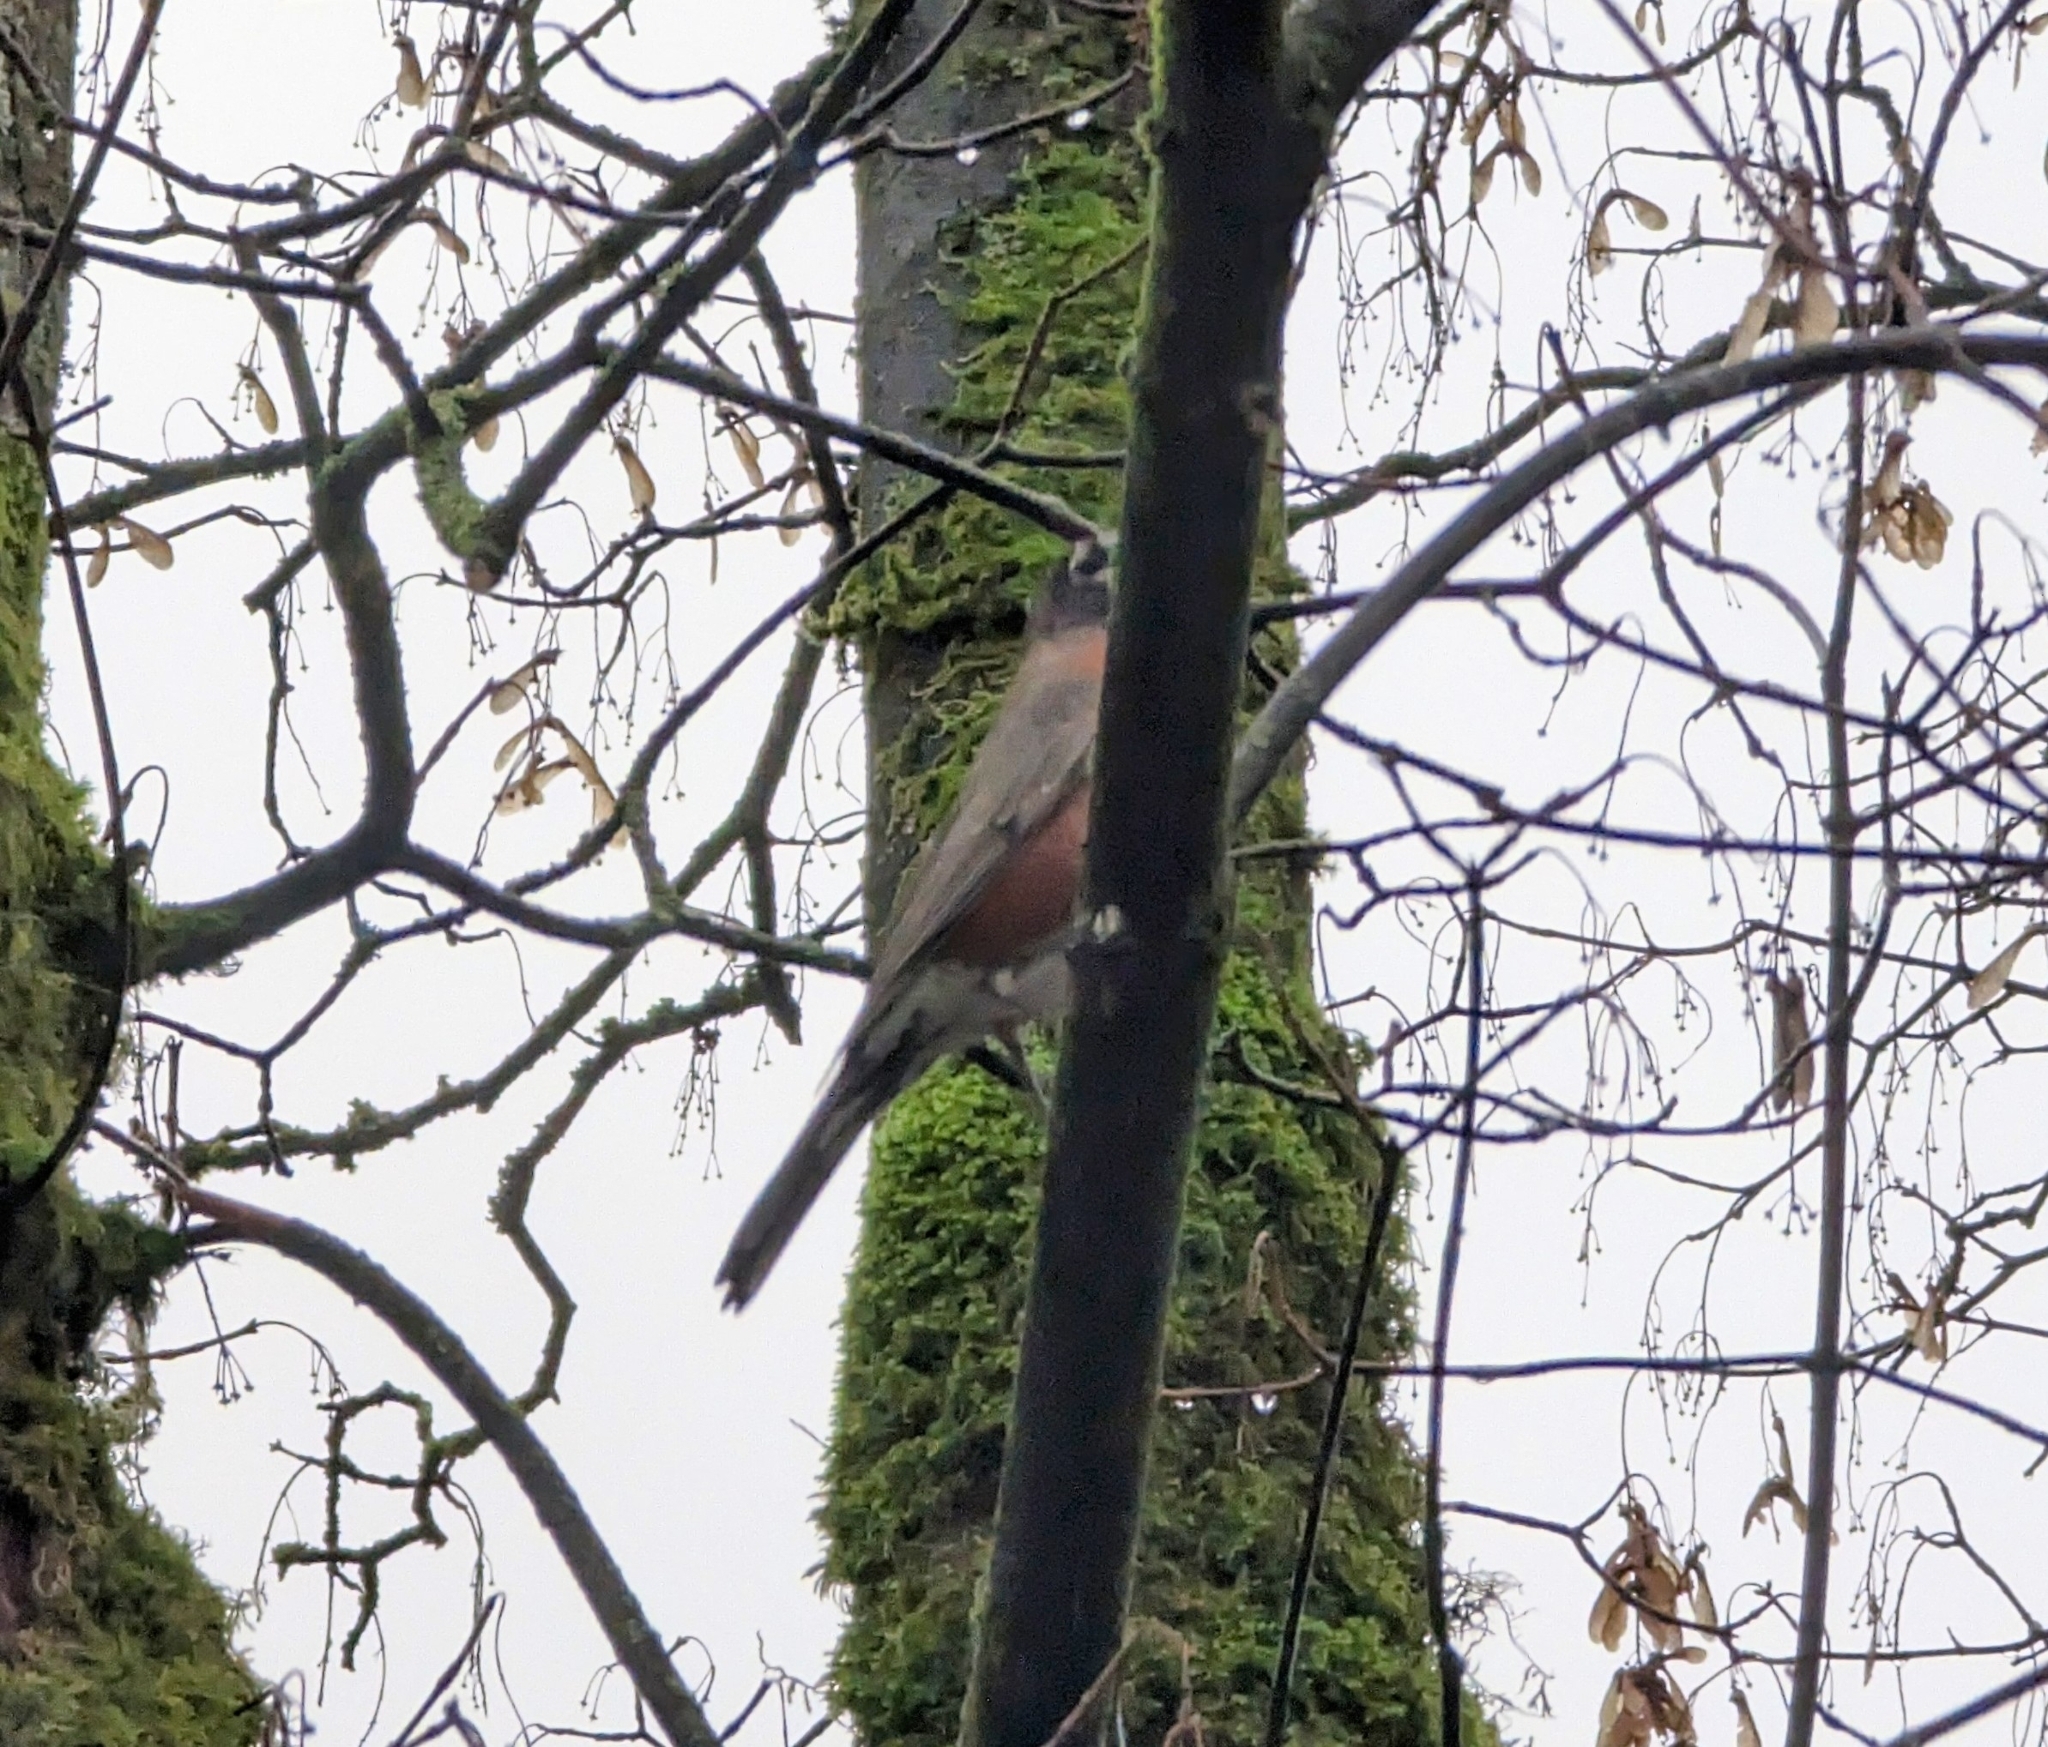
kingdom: Animalia
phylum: Chordata
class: Aves
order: Passeriformes
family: Turdidae
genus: Turdus
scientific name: Turdus migratorius
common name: American robin
